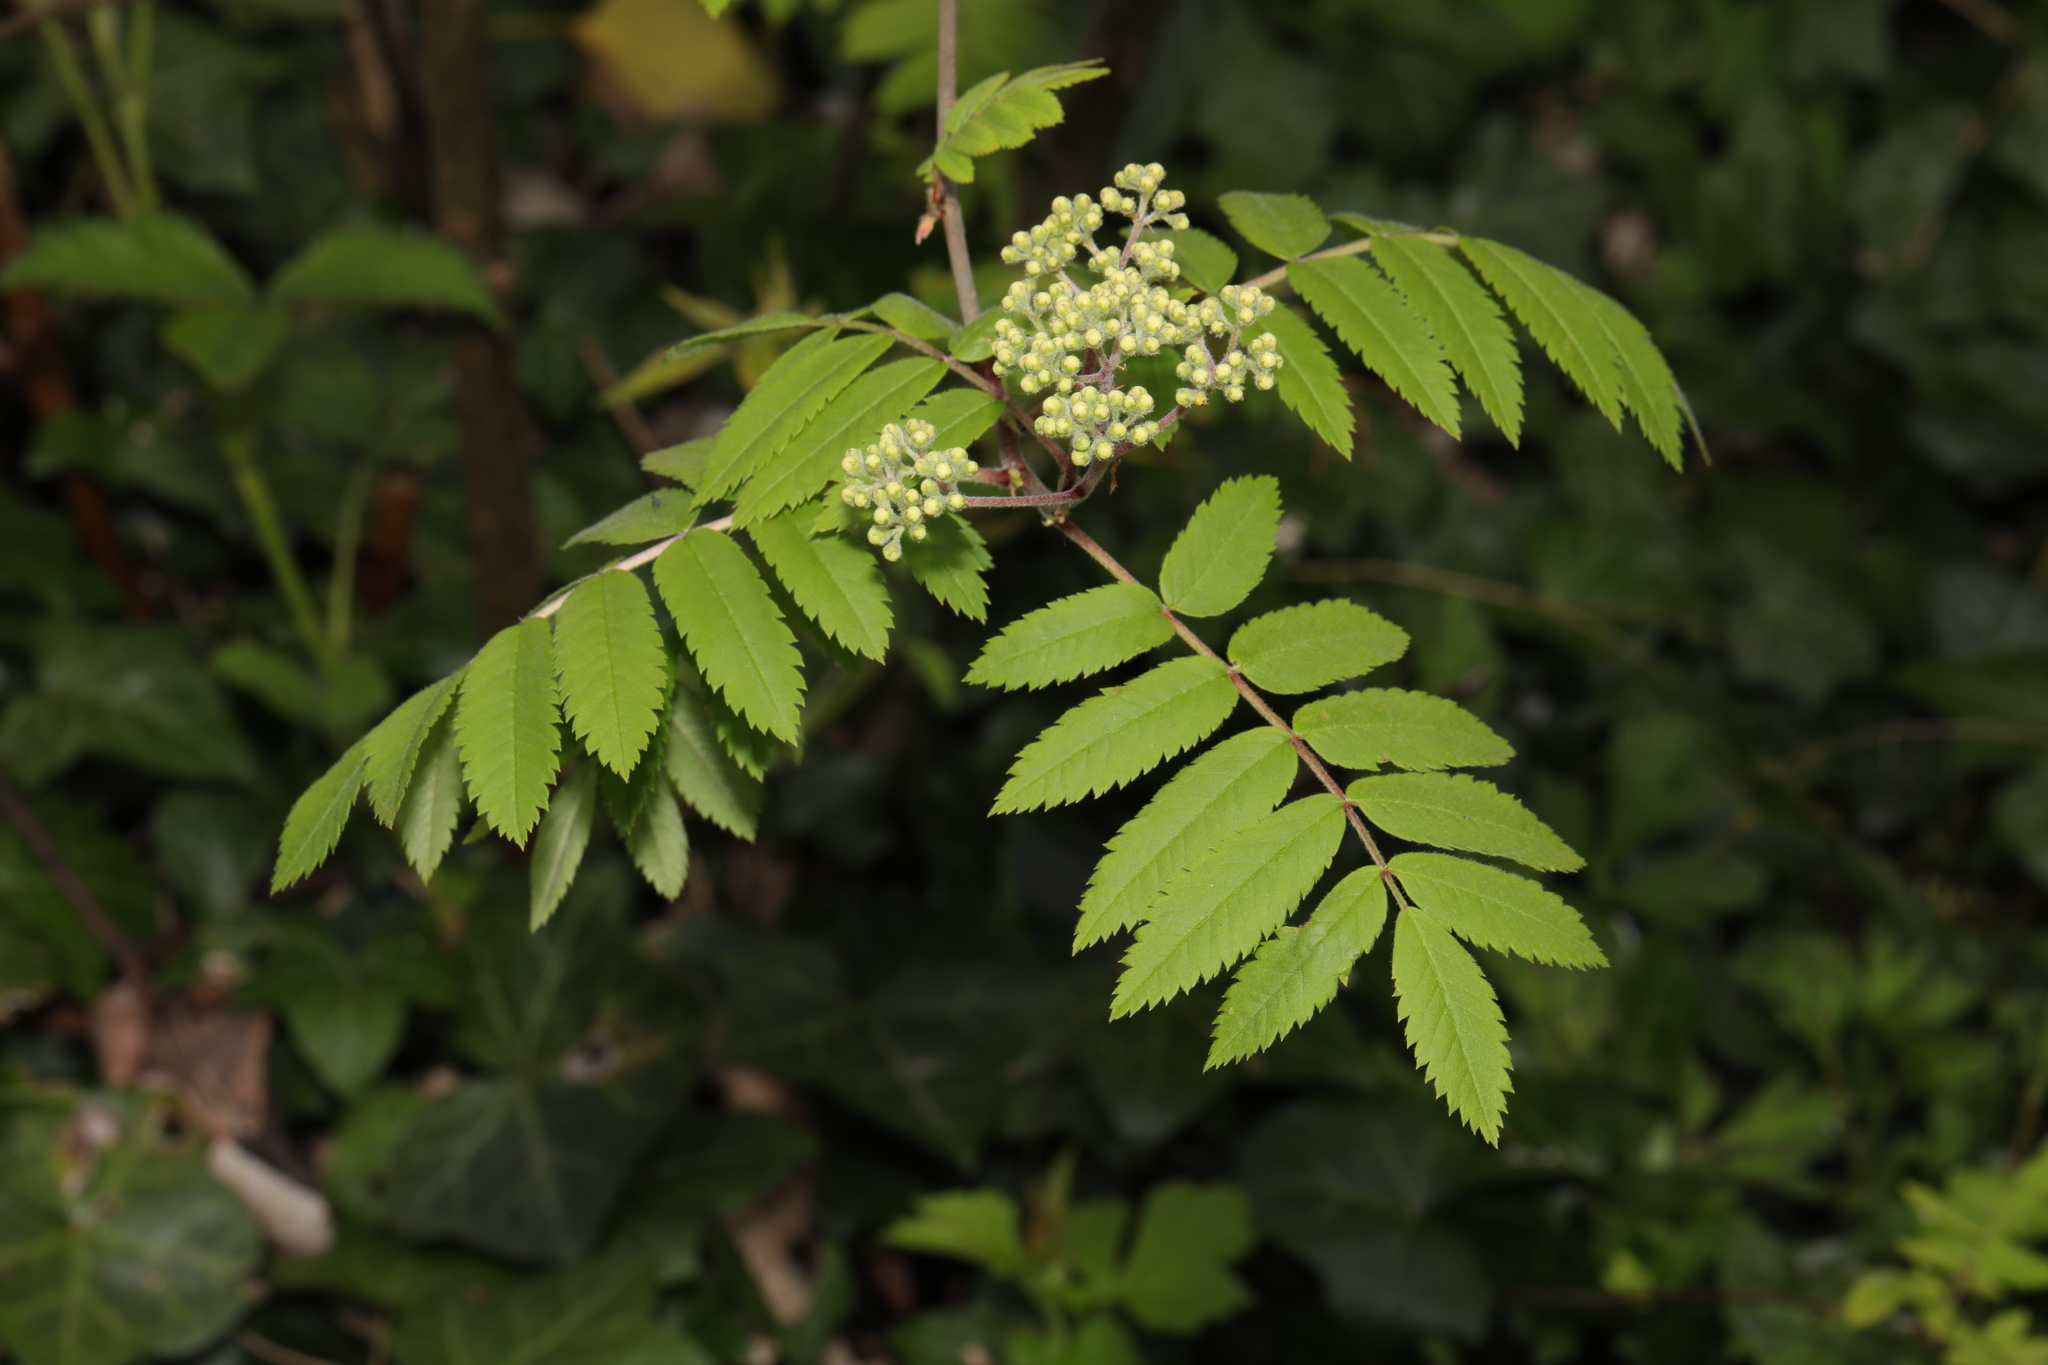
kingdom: Plantae
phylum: Tracheophyta
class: Magnoliopsida
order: Rosales
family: Rosaceae
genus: Sorbus
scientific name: Sorbus aucuparia
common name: Rowan
